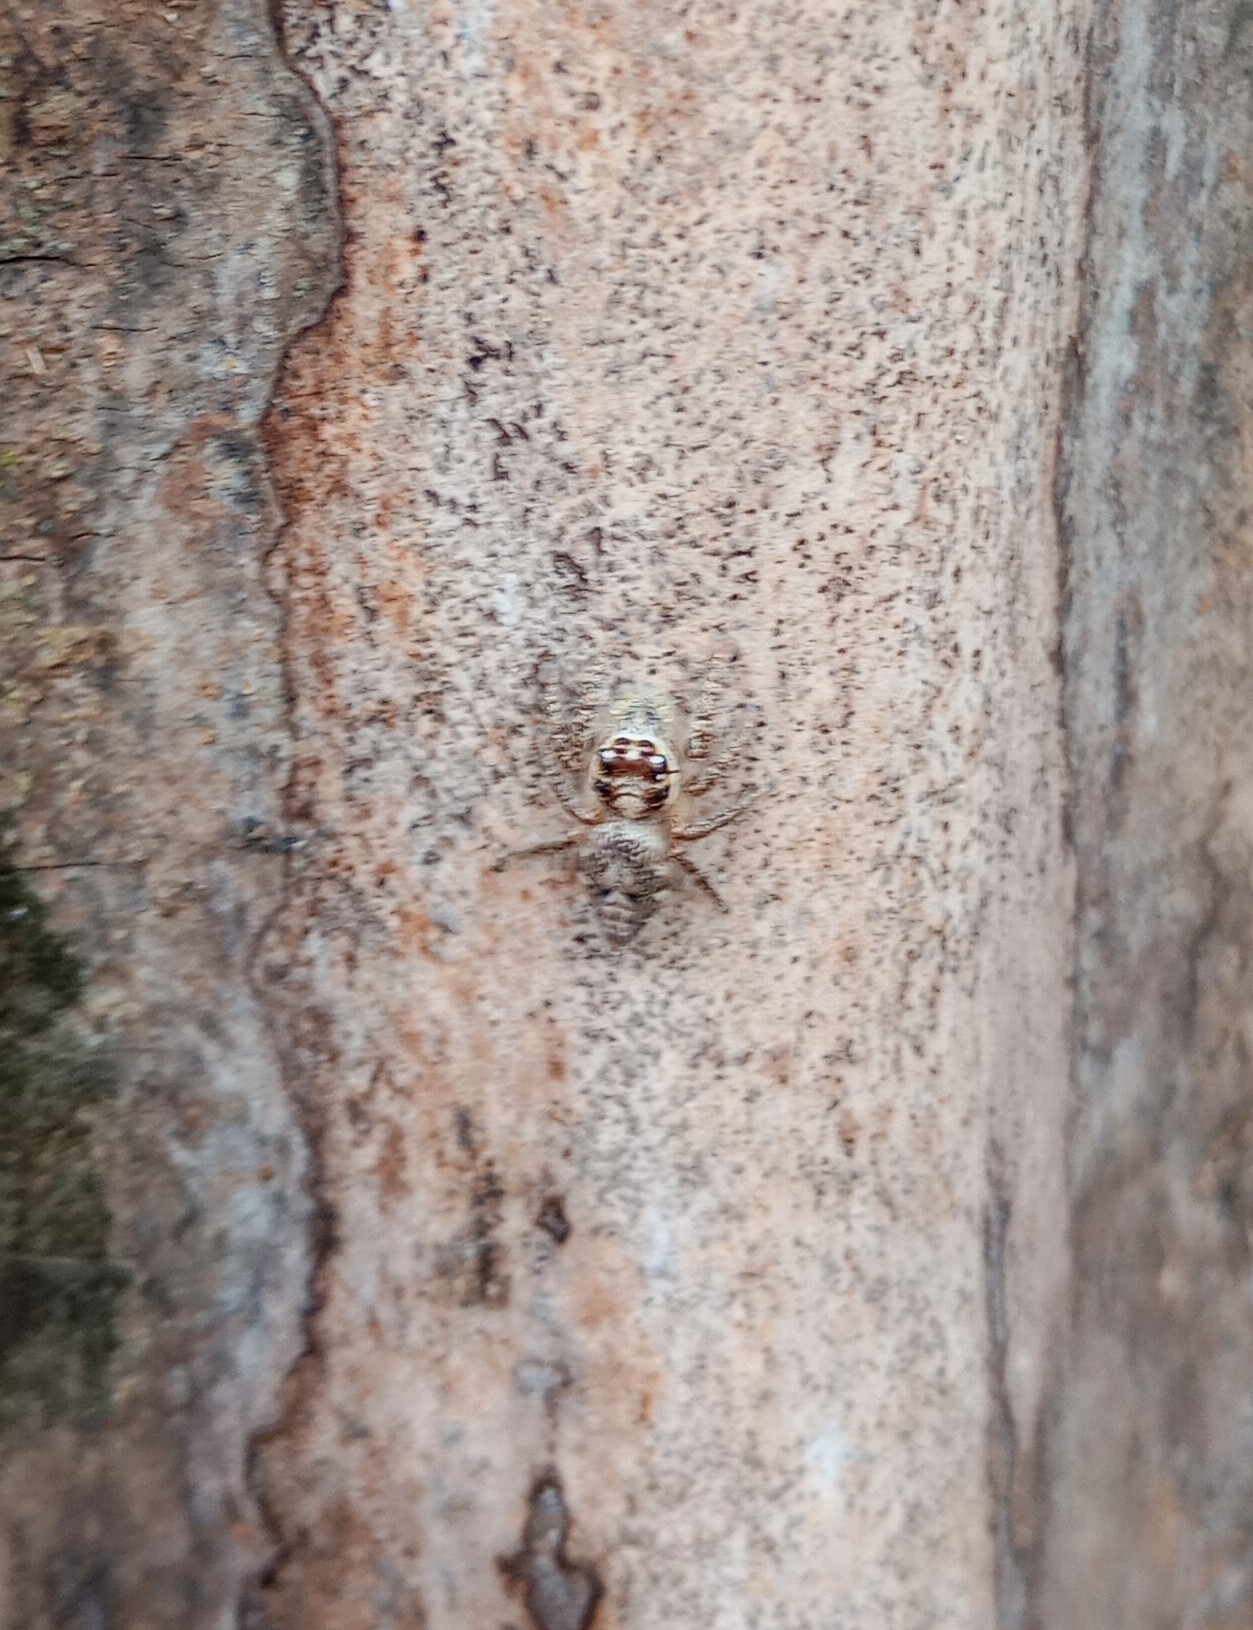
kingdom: Animalia
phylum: Arthropoda
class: Arachnida
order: Araneae
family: Salticidae
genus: Hyllus
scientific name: Hyllus semicupreus
